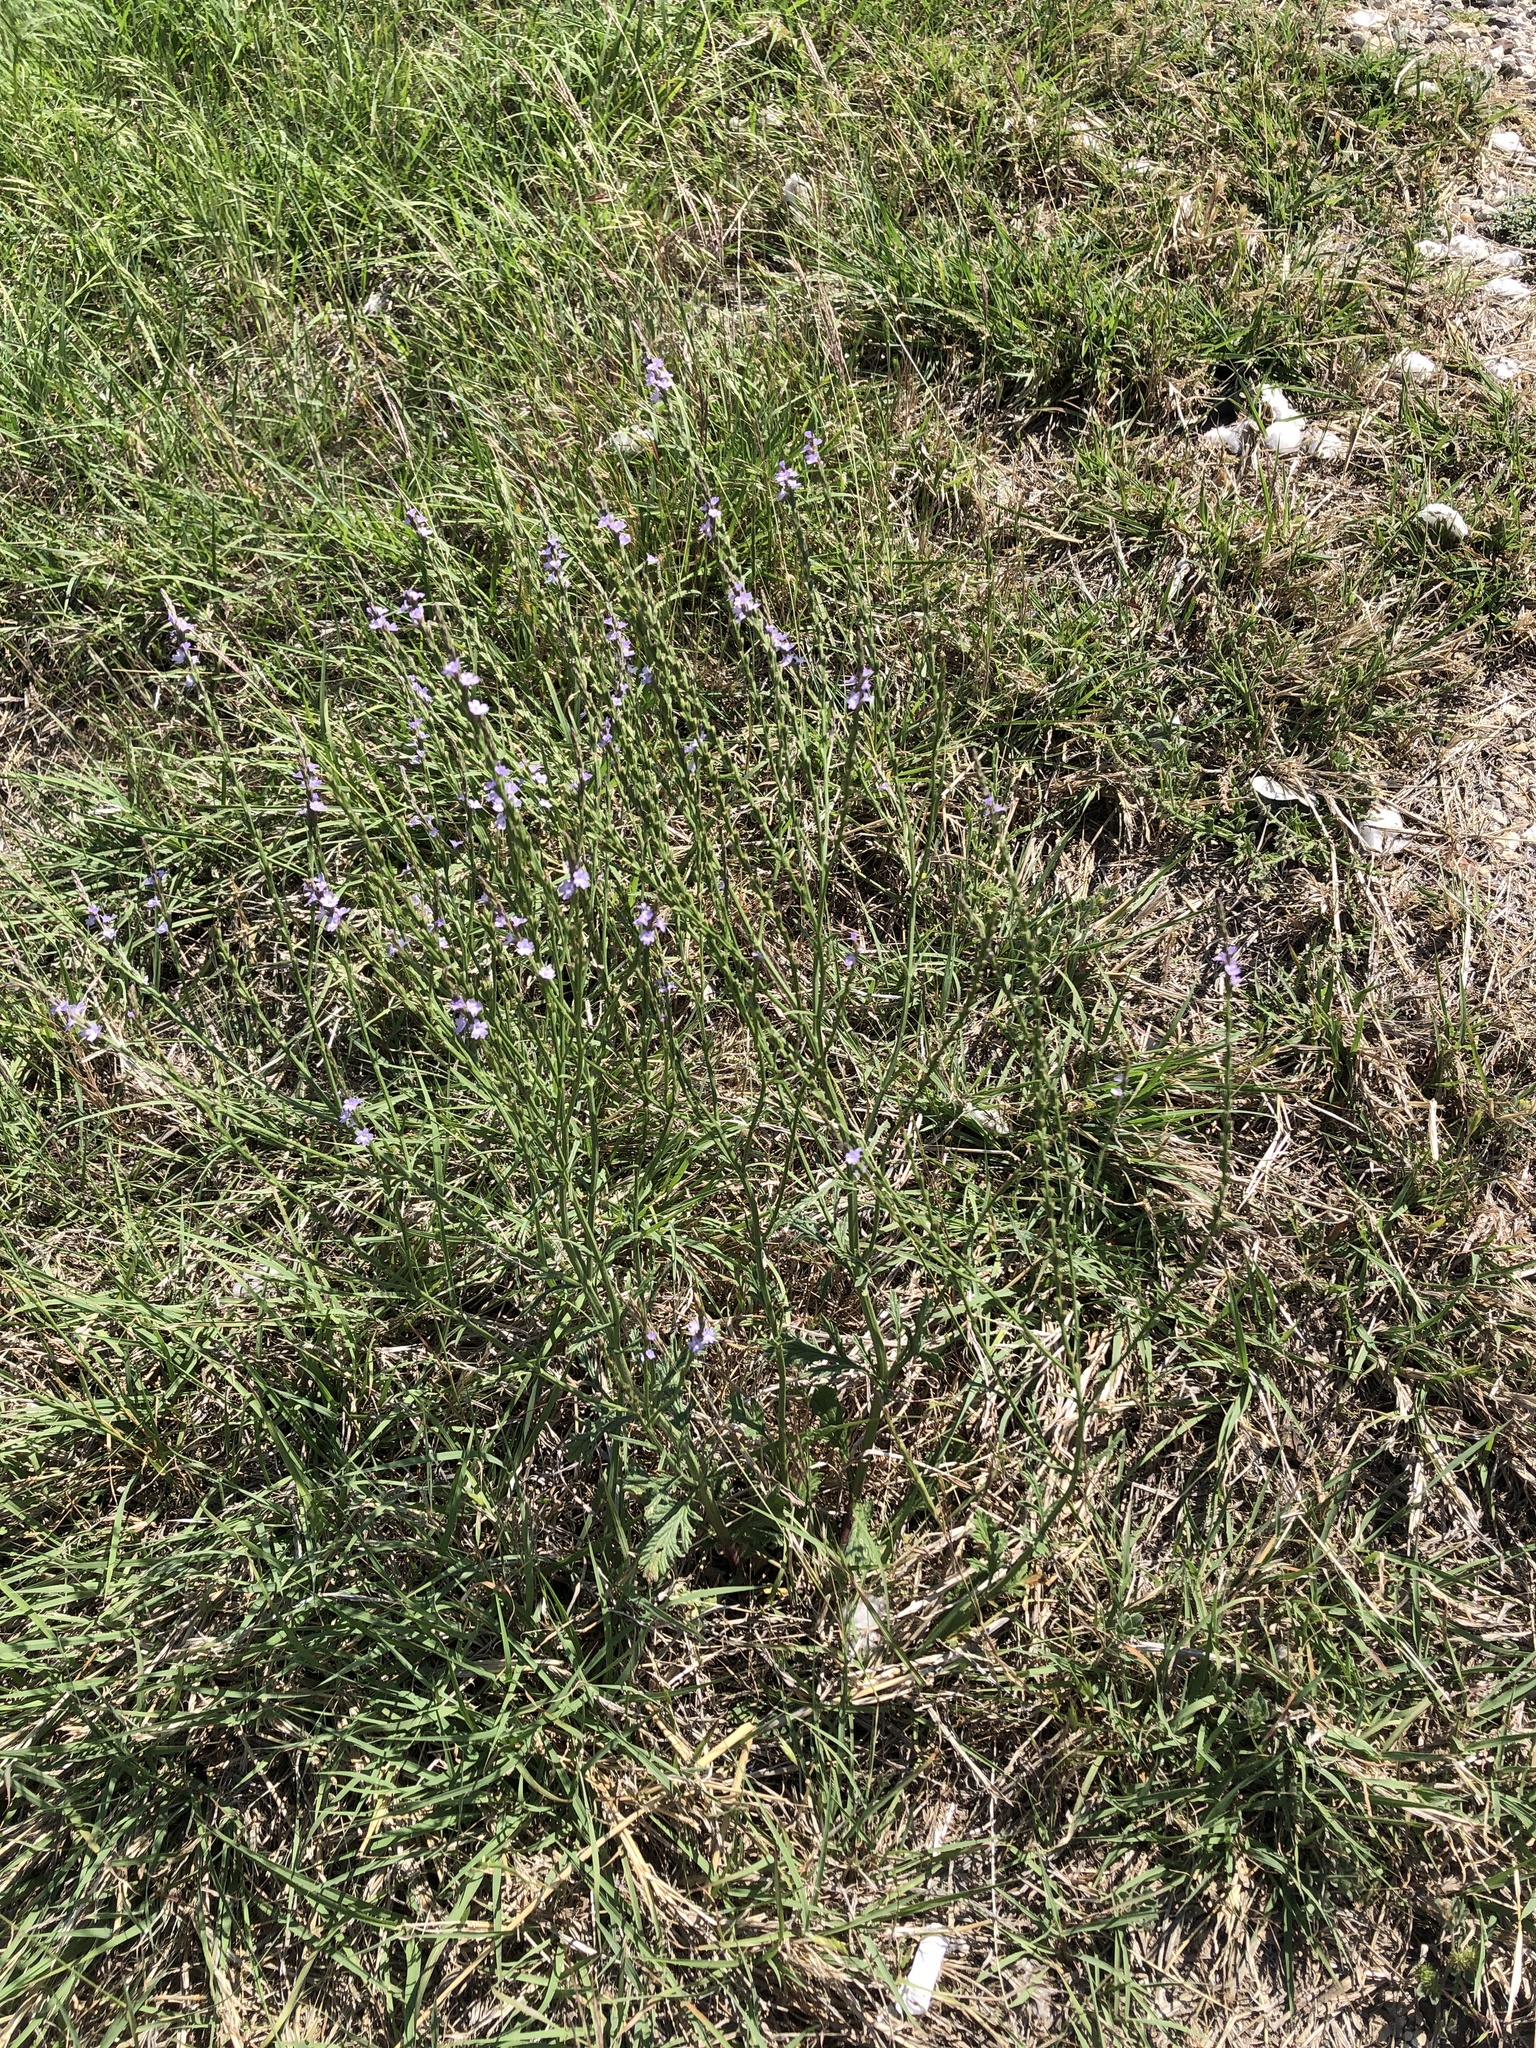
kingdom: Plantae
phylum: Tracheophyta
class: Magnoliopsida
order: Lamiales
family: Verbenaceae
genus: Verbena
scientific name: Verbena halei
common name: Texas vervain
